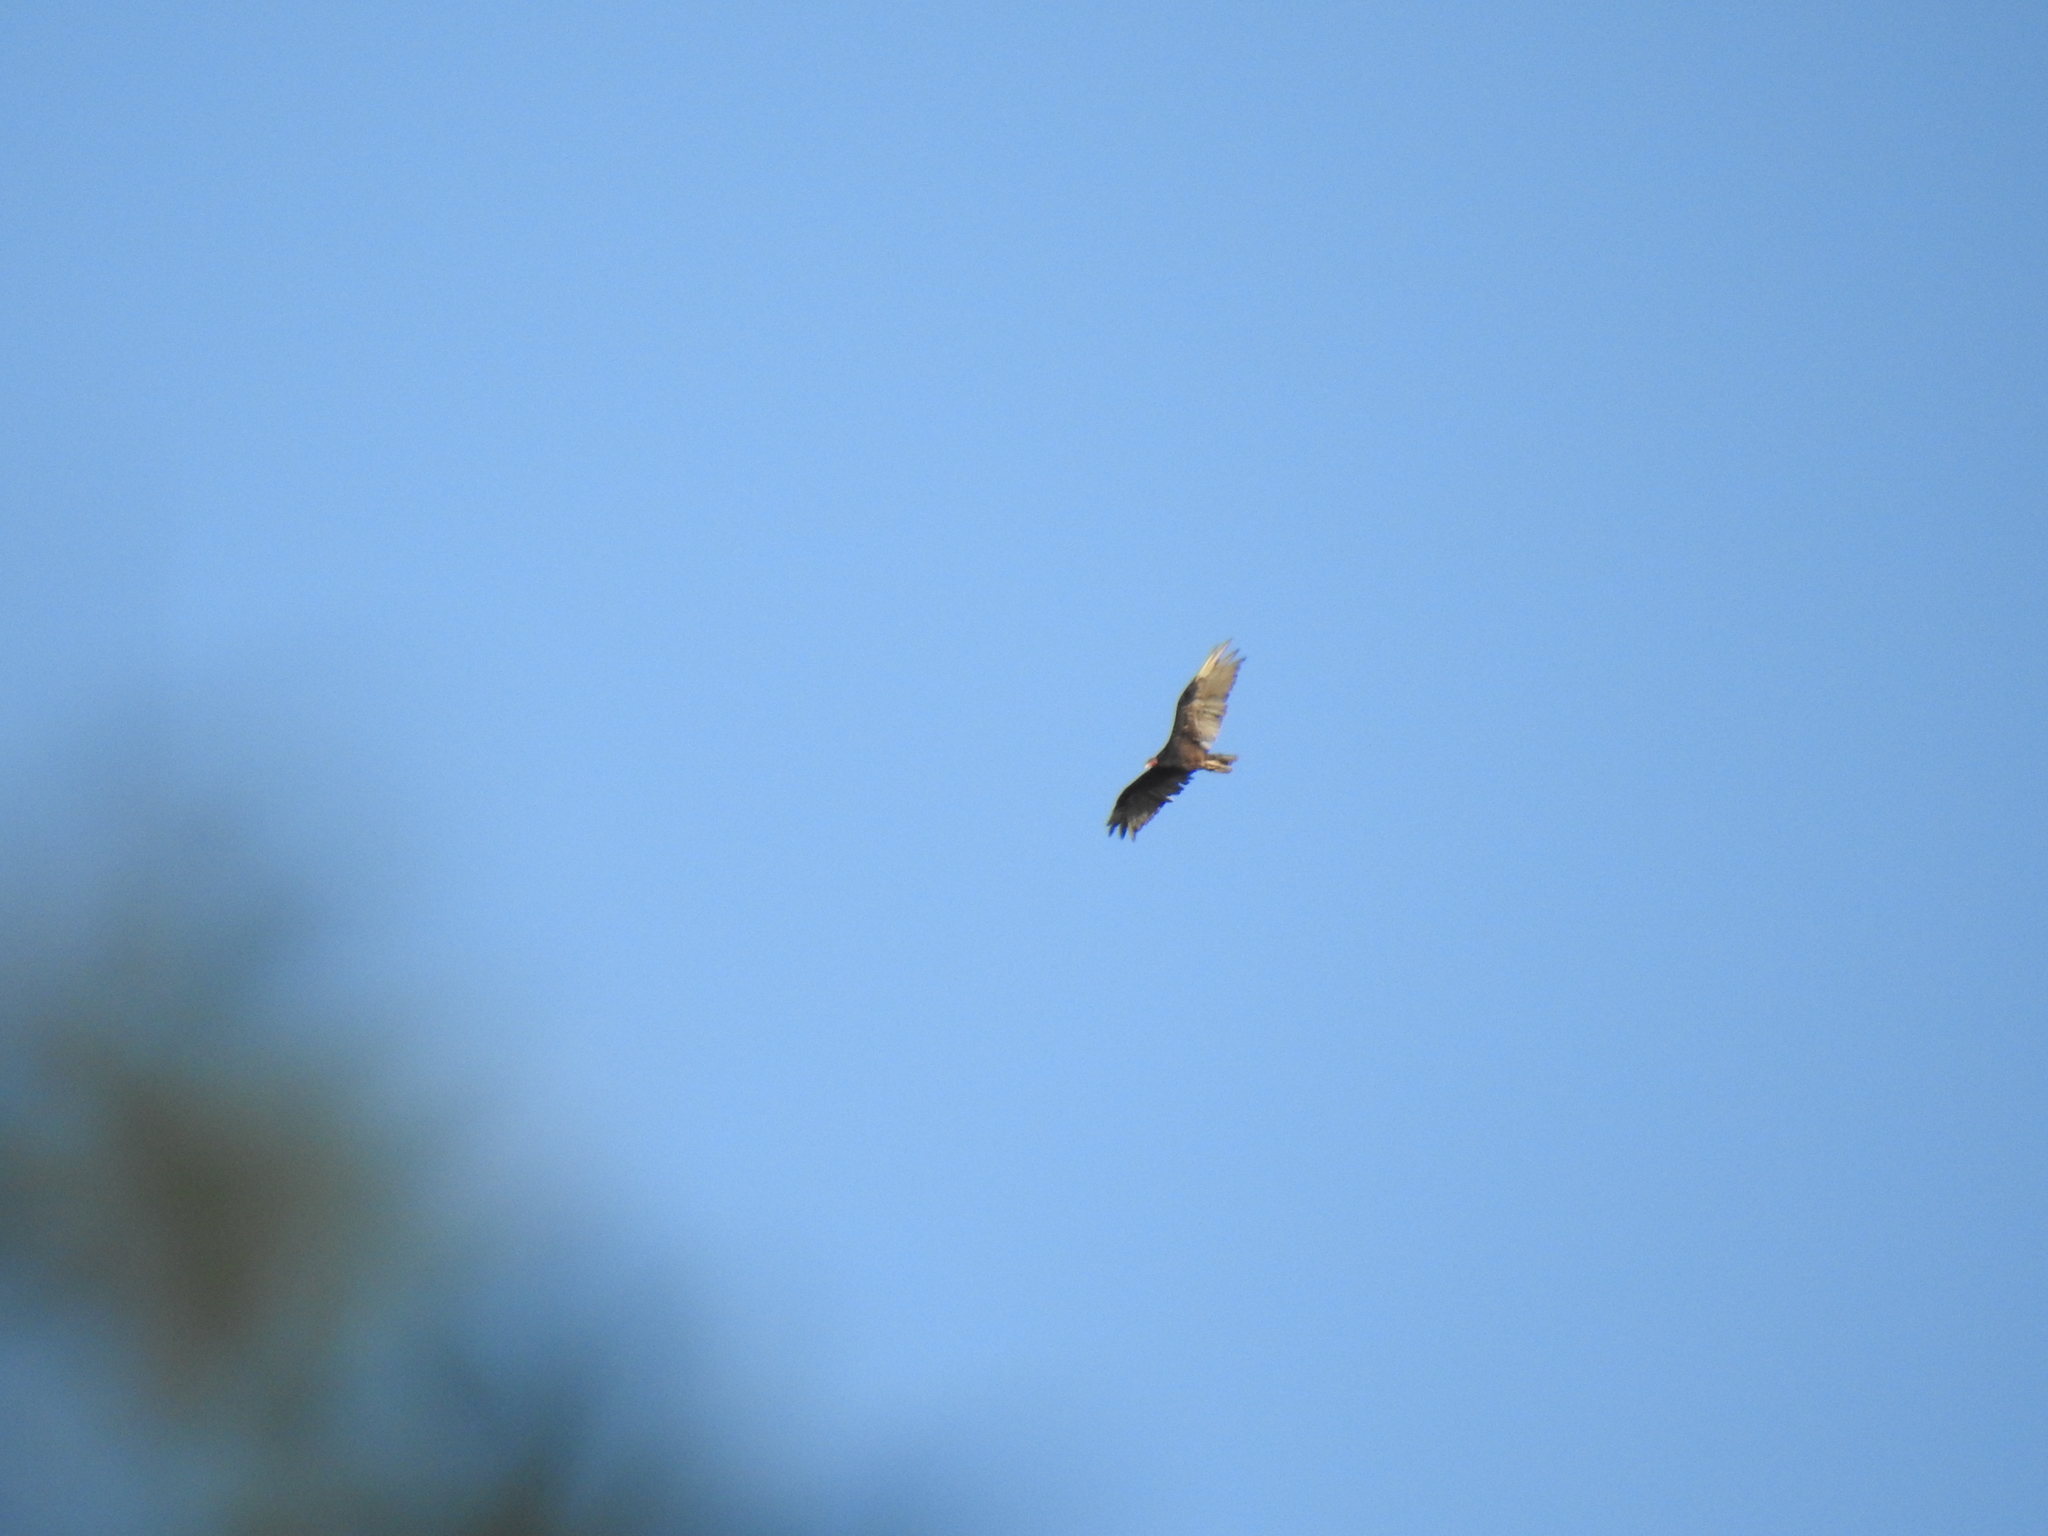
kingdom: Animalia
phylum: Chordata
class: Aves
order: Accipitriformes
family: Cathartidae
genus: Cathartes
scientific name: Cathartes aura
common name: Turkey vulture
